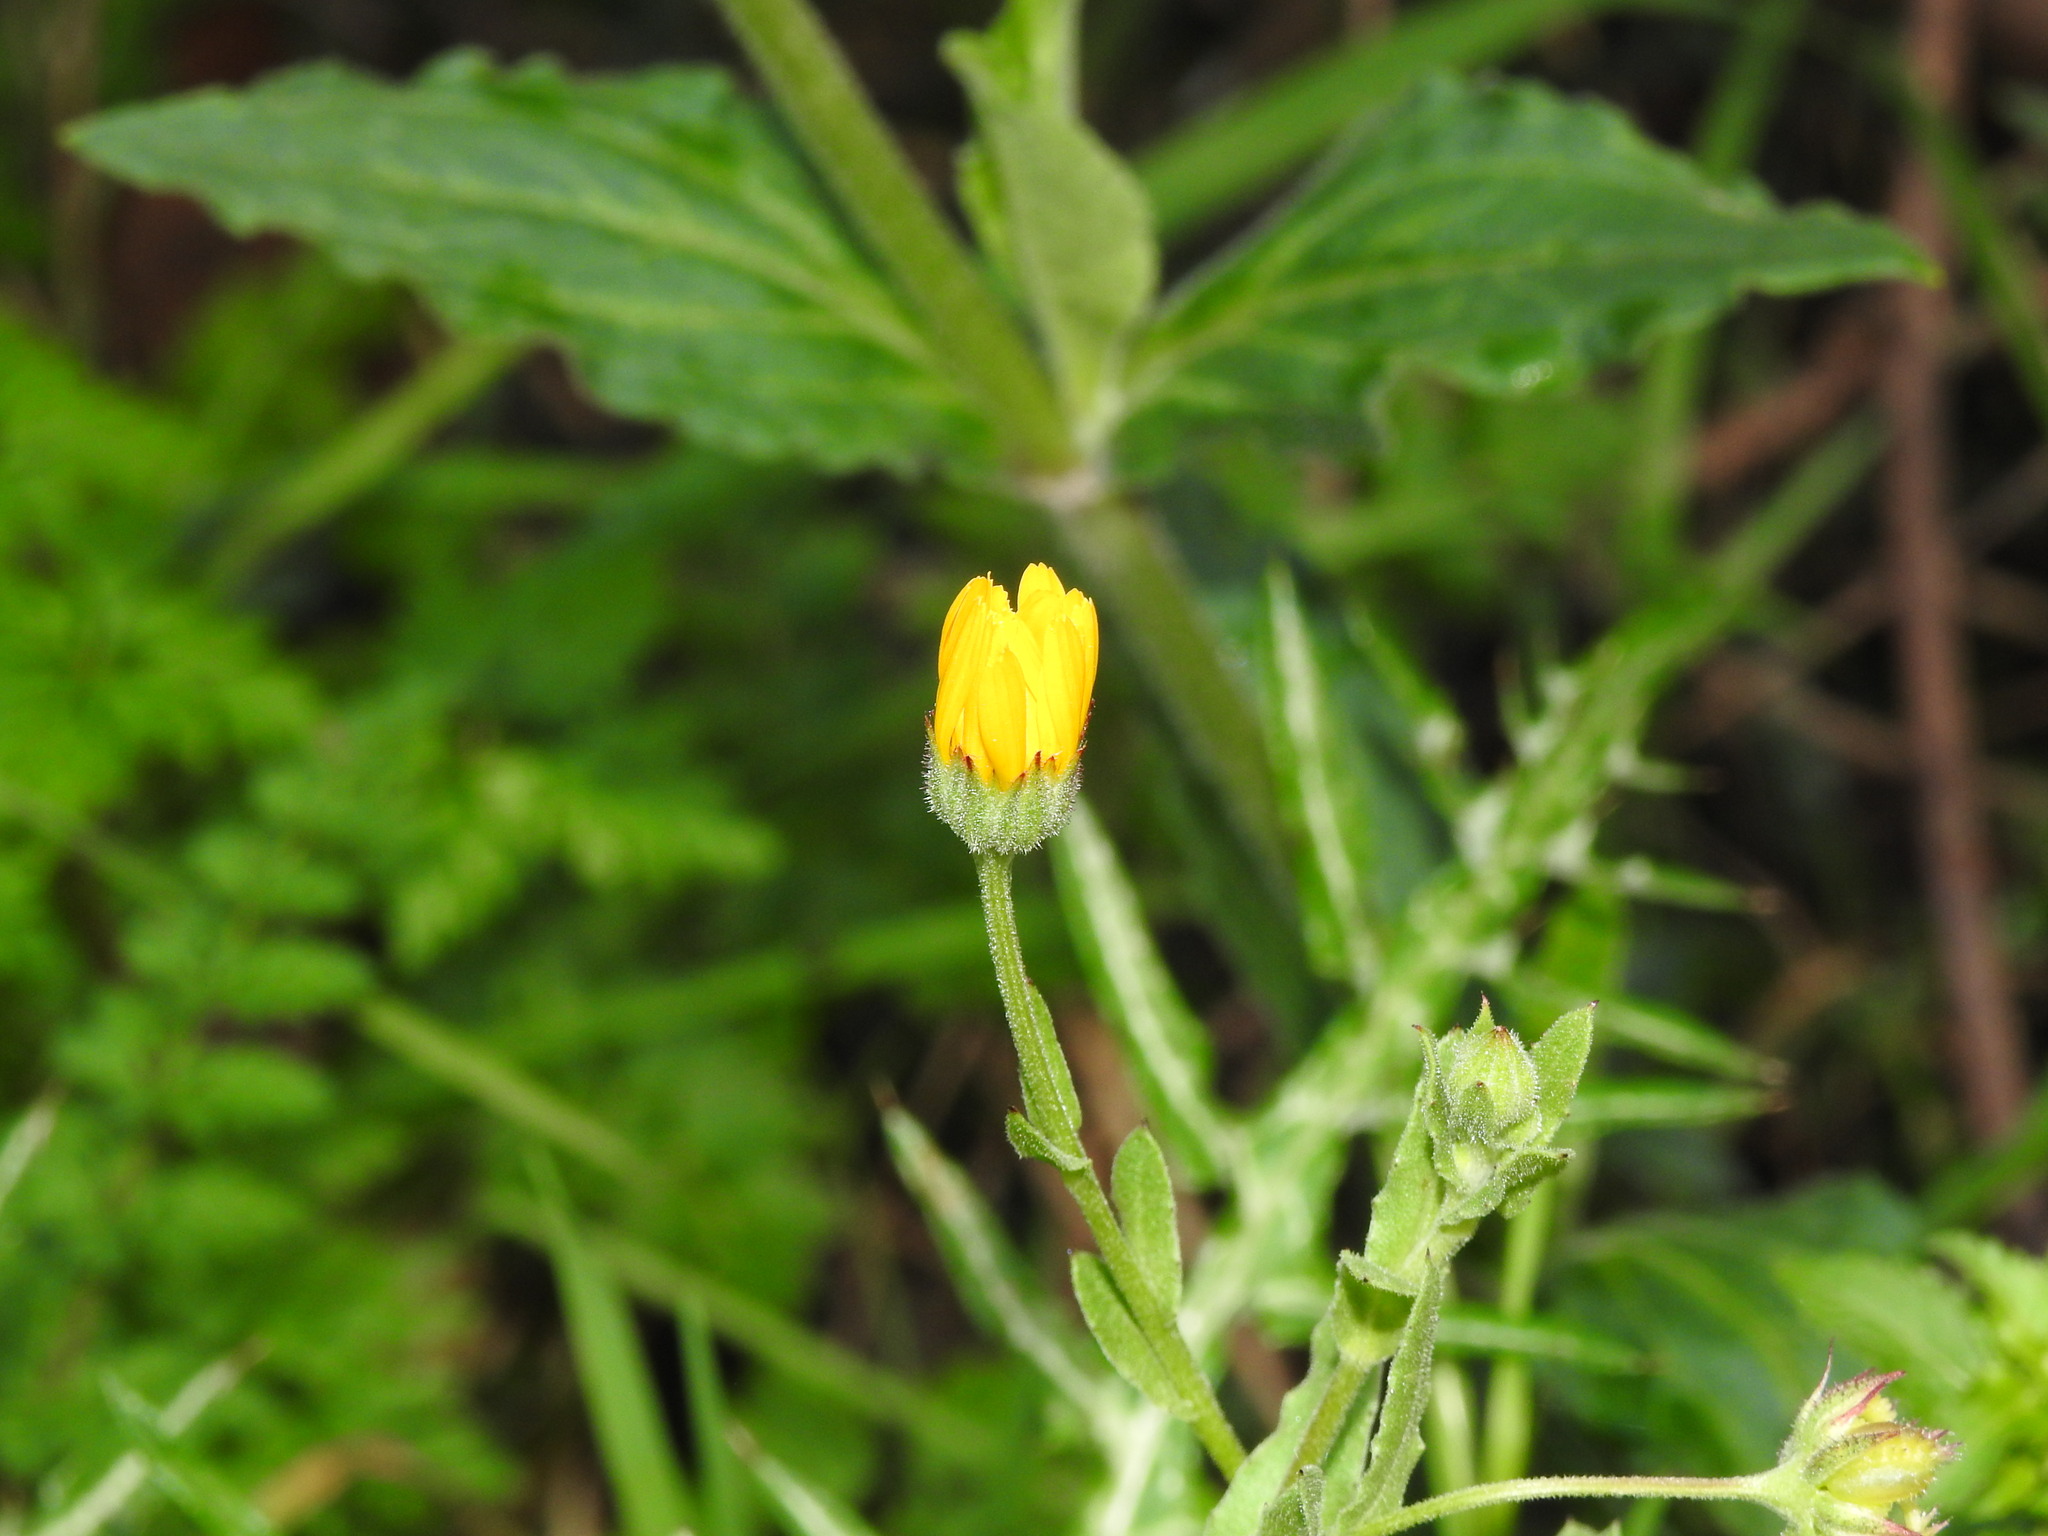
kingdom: Plantae
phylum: Tracheophyta
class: Magnoliopsida
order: Asterales
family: Asteraceae
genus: Calendula
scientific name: Calendula arvensis
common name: Field marigold
